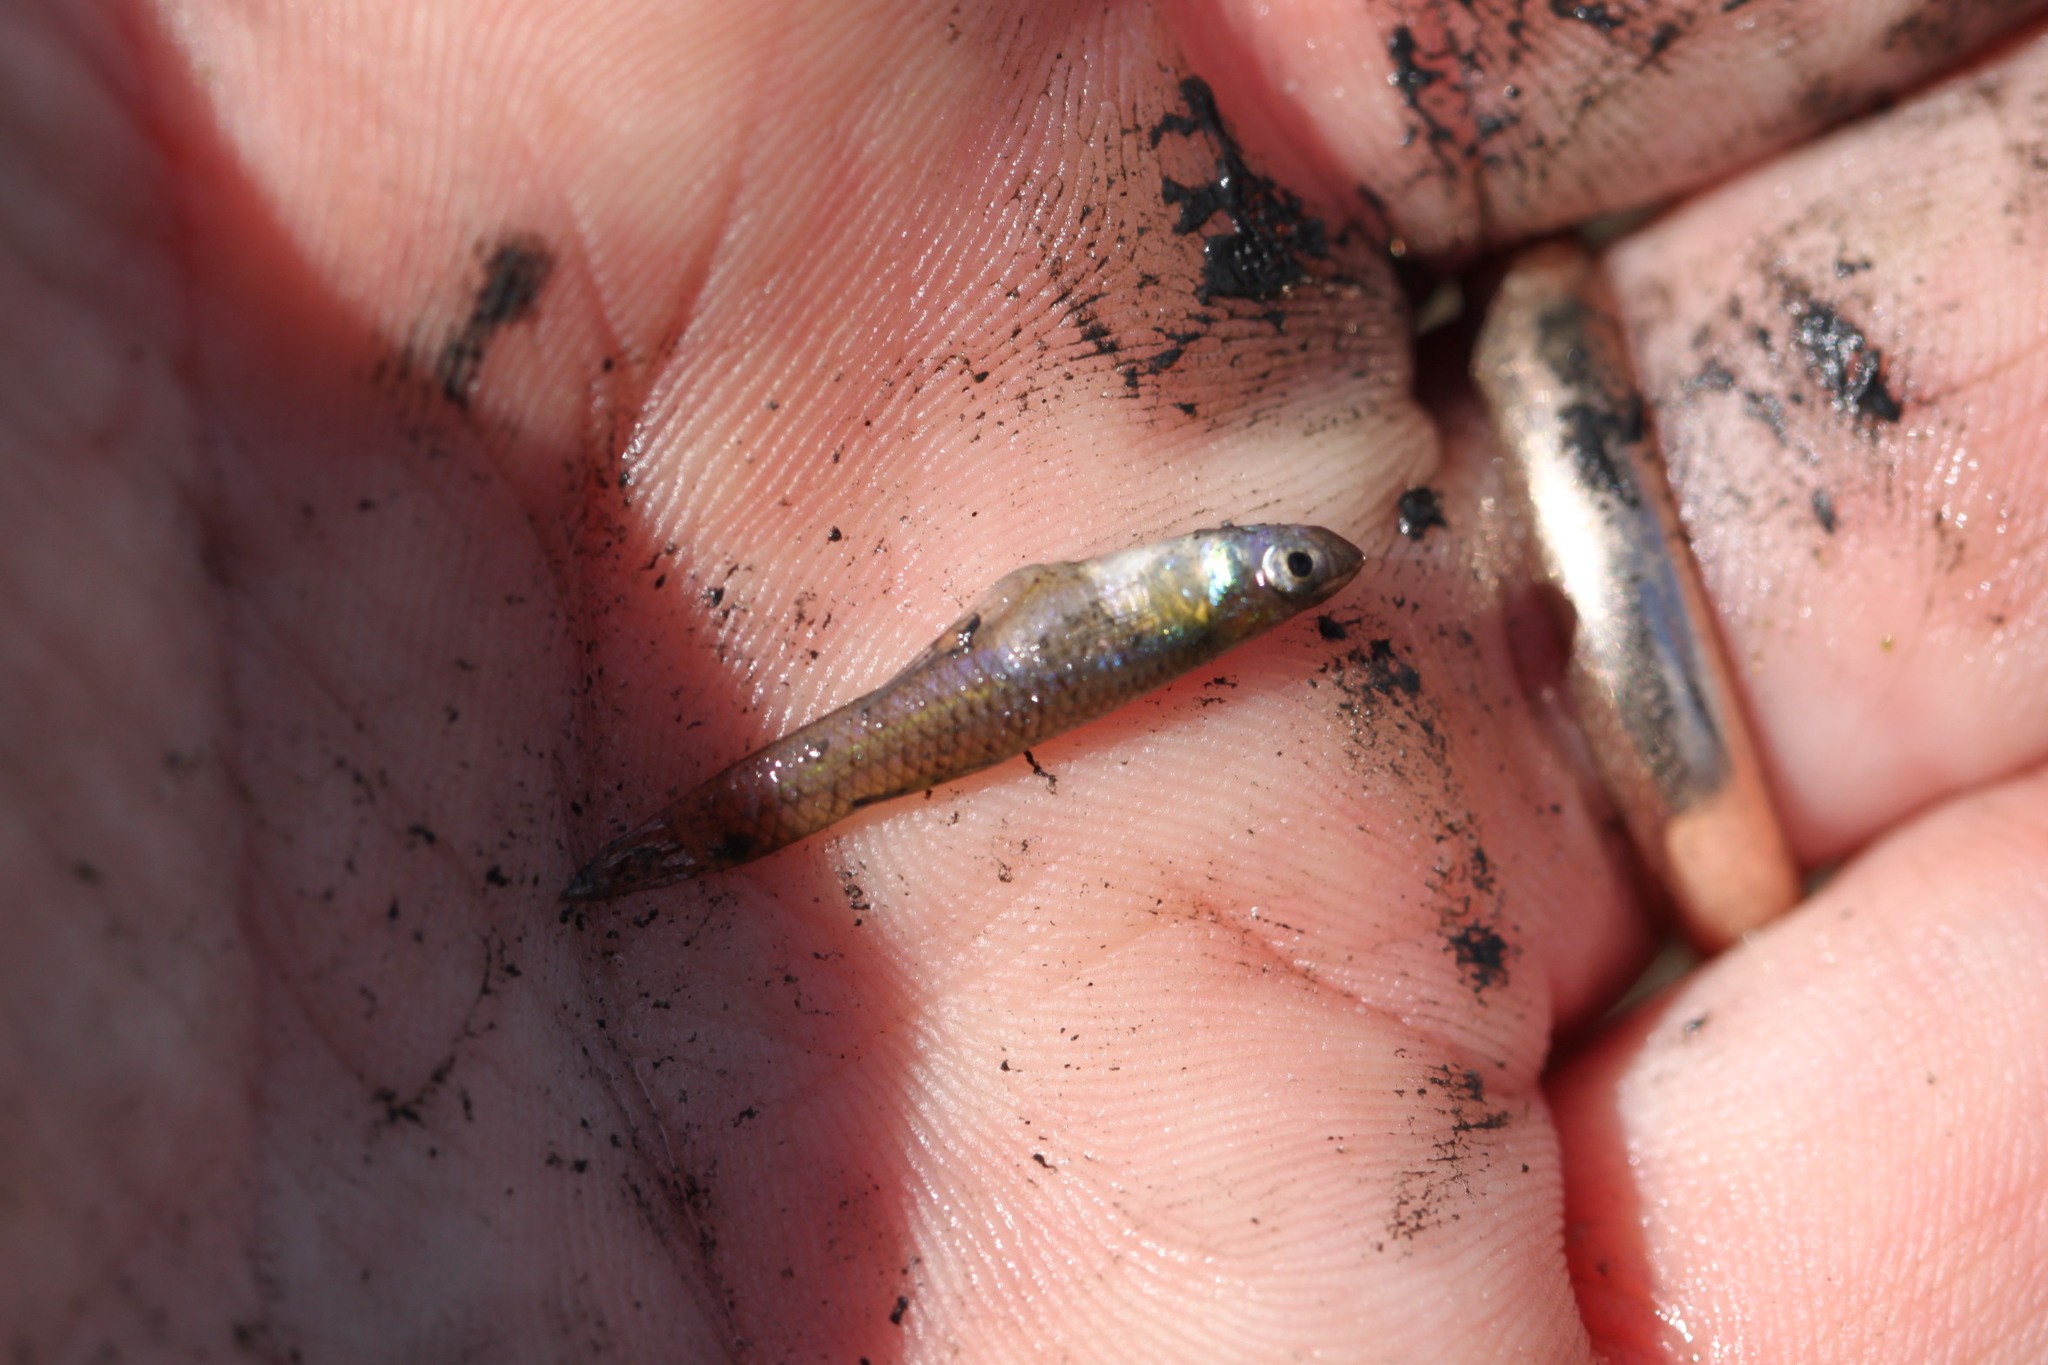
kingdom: Animalia
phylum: Chordata
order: Cyprinodontiformes
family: Poeciliidae
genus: Gambusia
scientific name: Gambusia holbrooki
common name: Eastern mosquitofish
